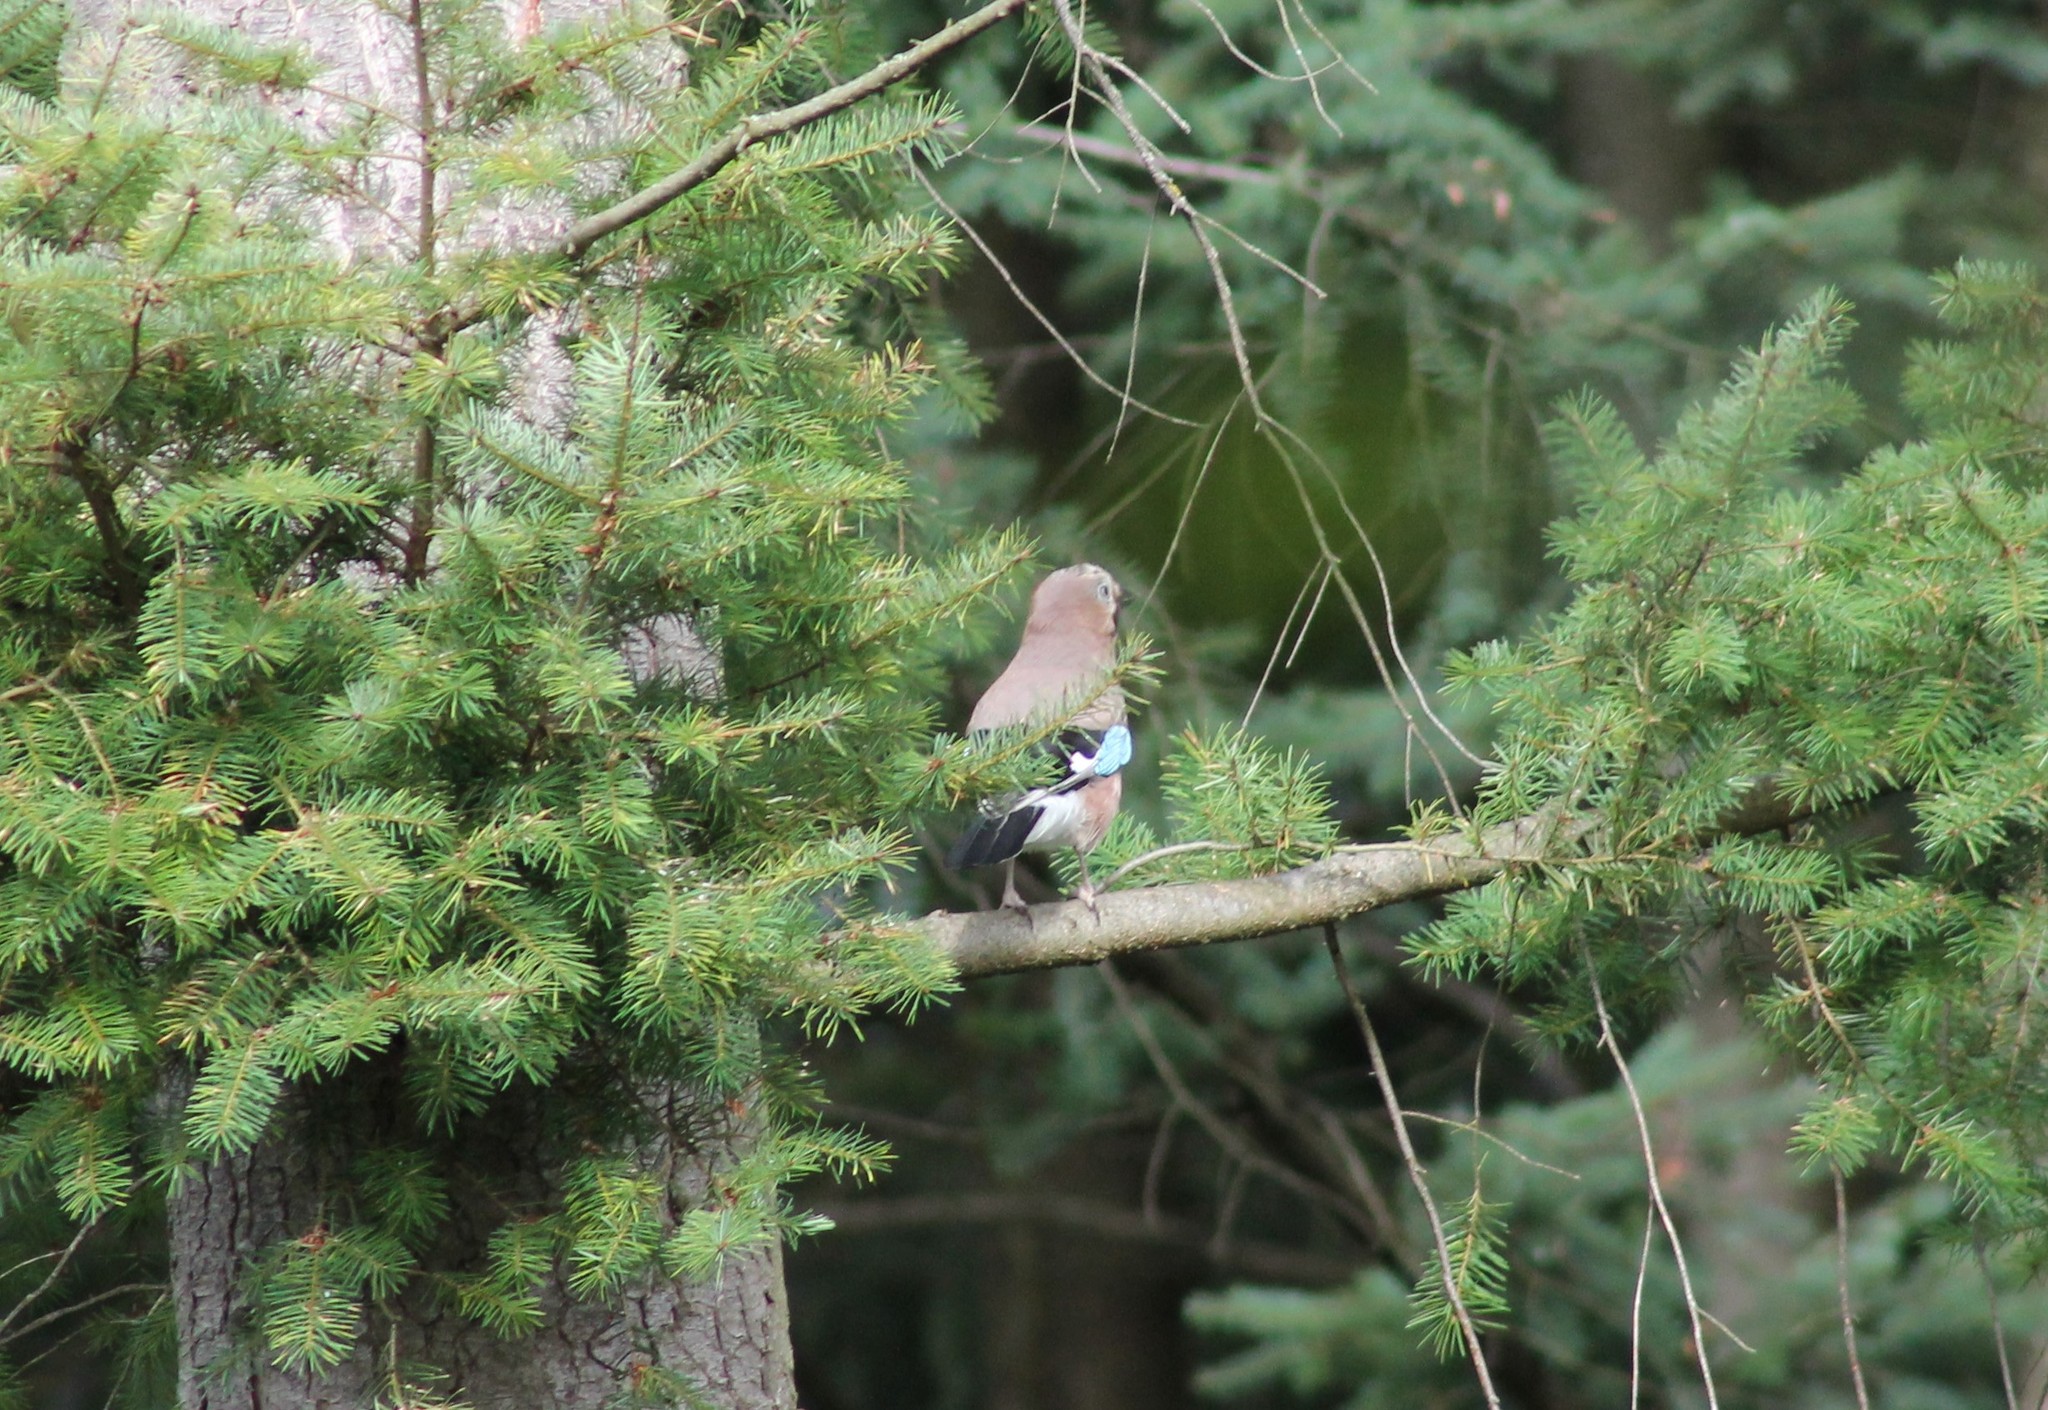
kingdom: Animalia
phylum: Chordata
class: Aves
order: Passeriformes
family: Corvidae
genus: Garrulus
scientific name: Garrulus glandarius
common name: Eurasian jay
